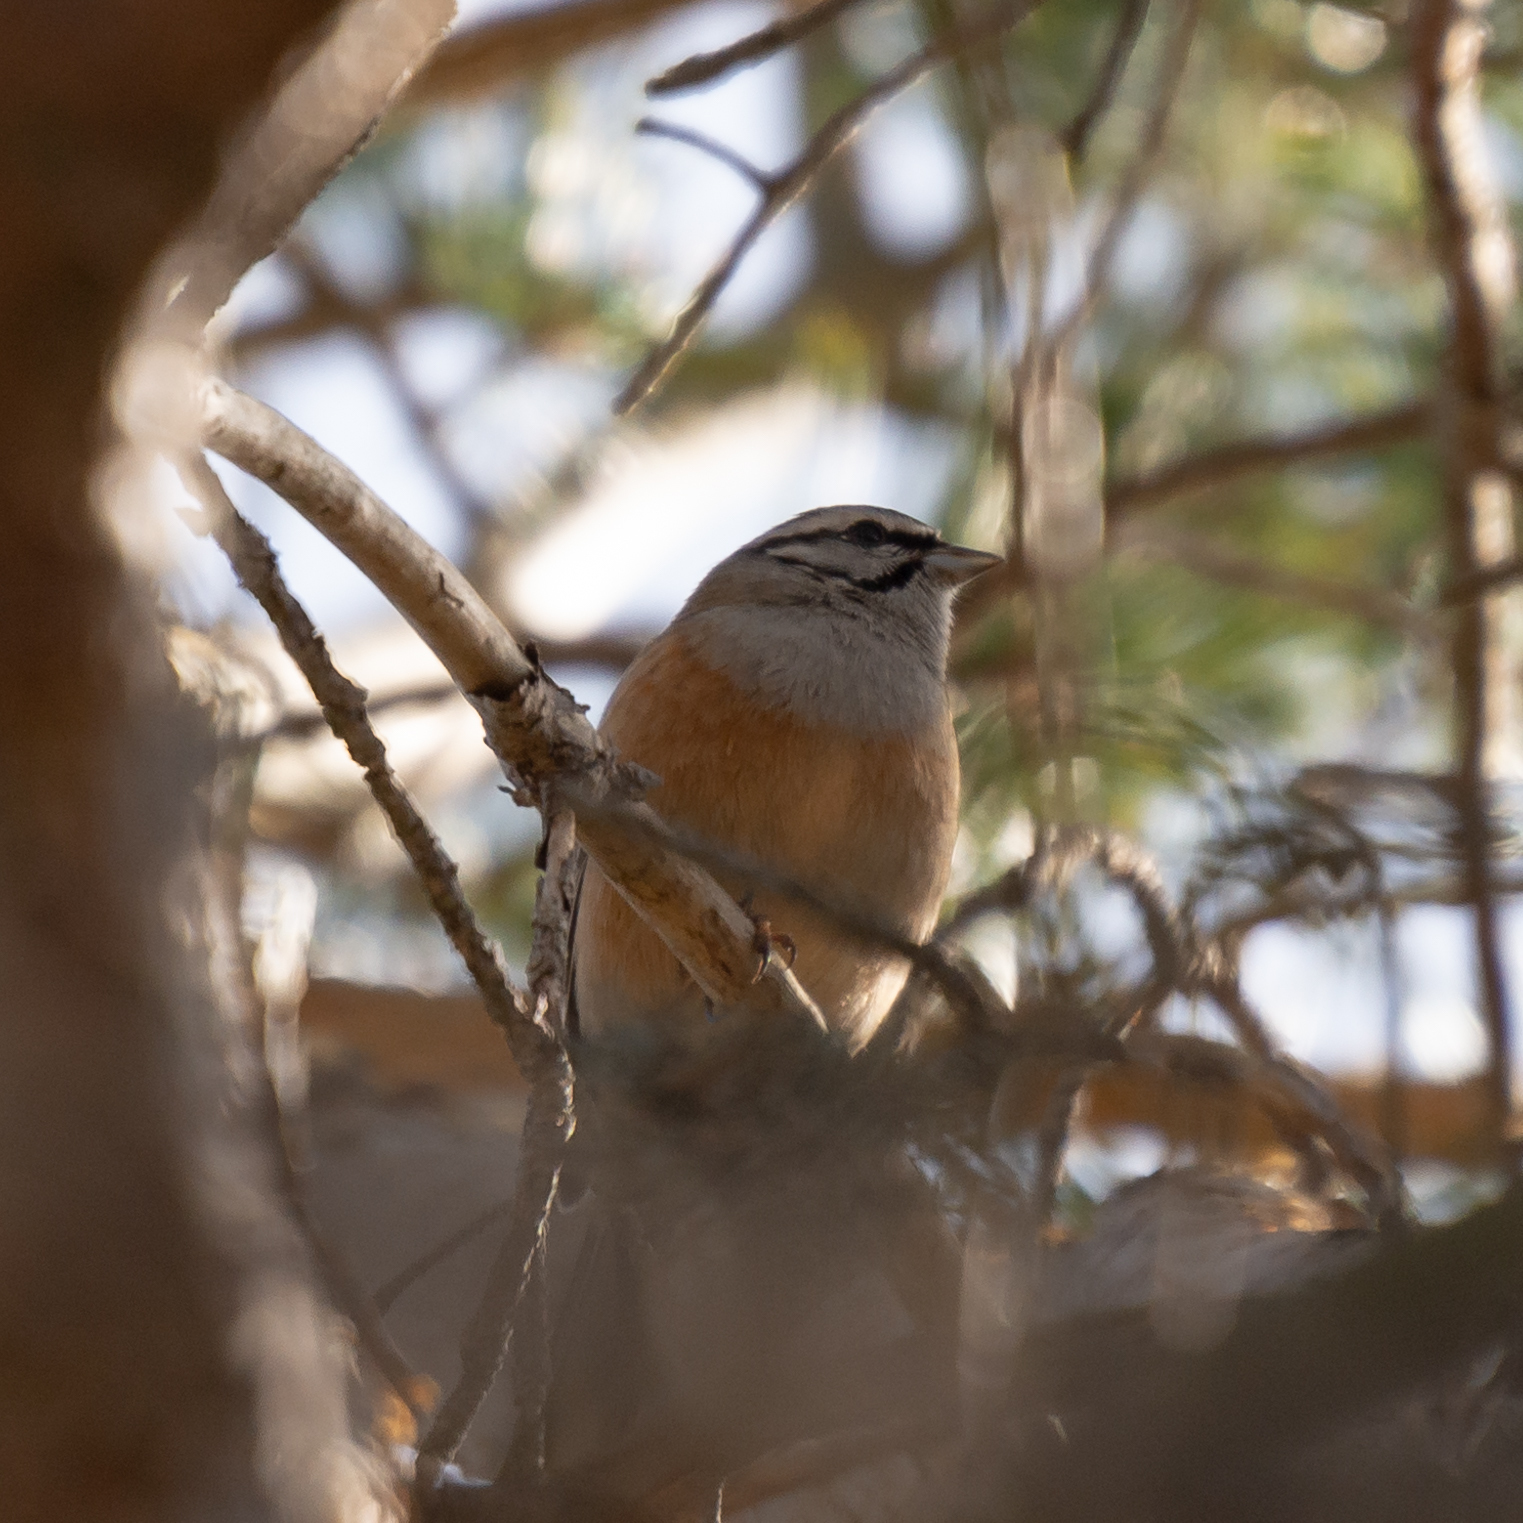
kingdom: Animalia
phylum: Chordata
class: Aves
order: Passeriformes
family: Emberizidae
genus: Emberiza
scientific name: Emberiza cia
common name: Rock bunting
